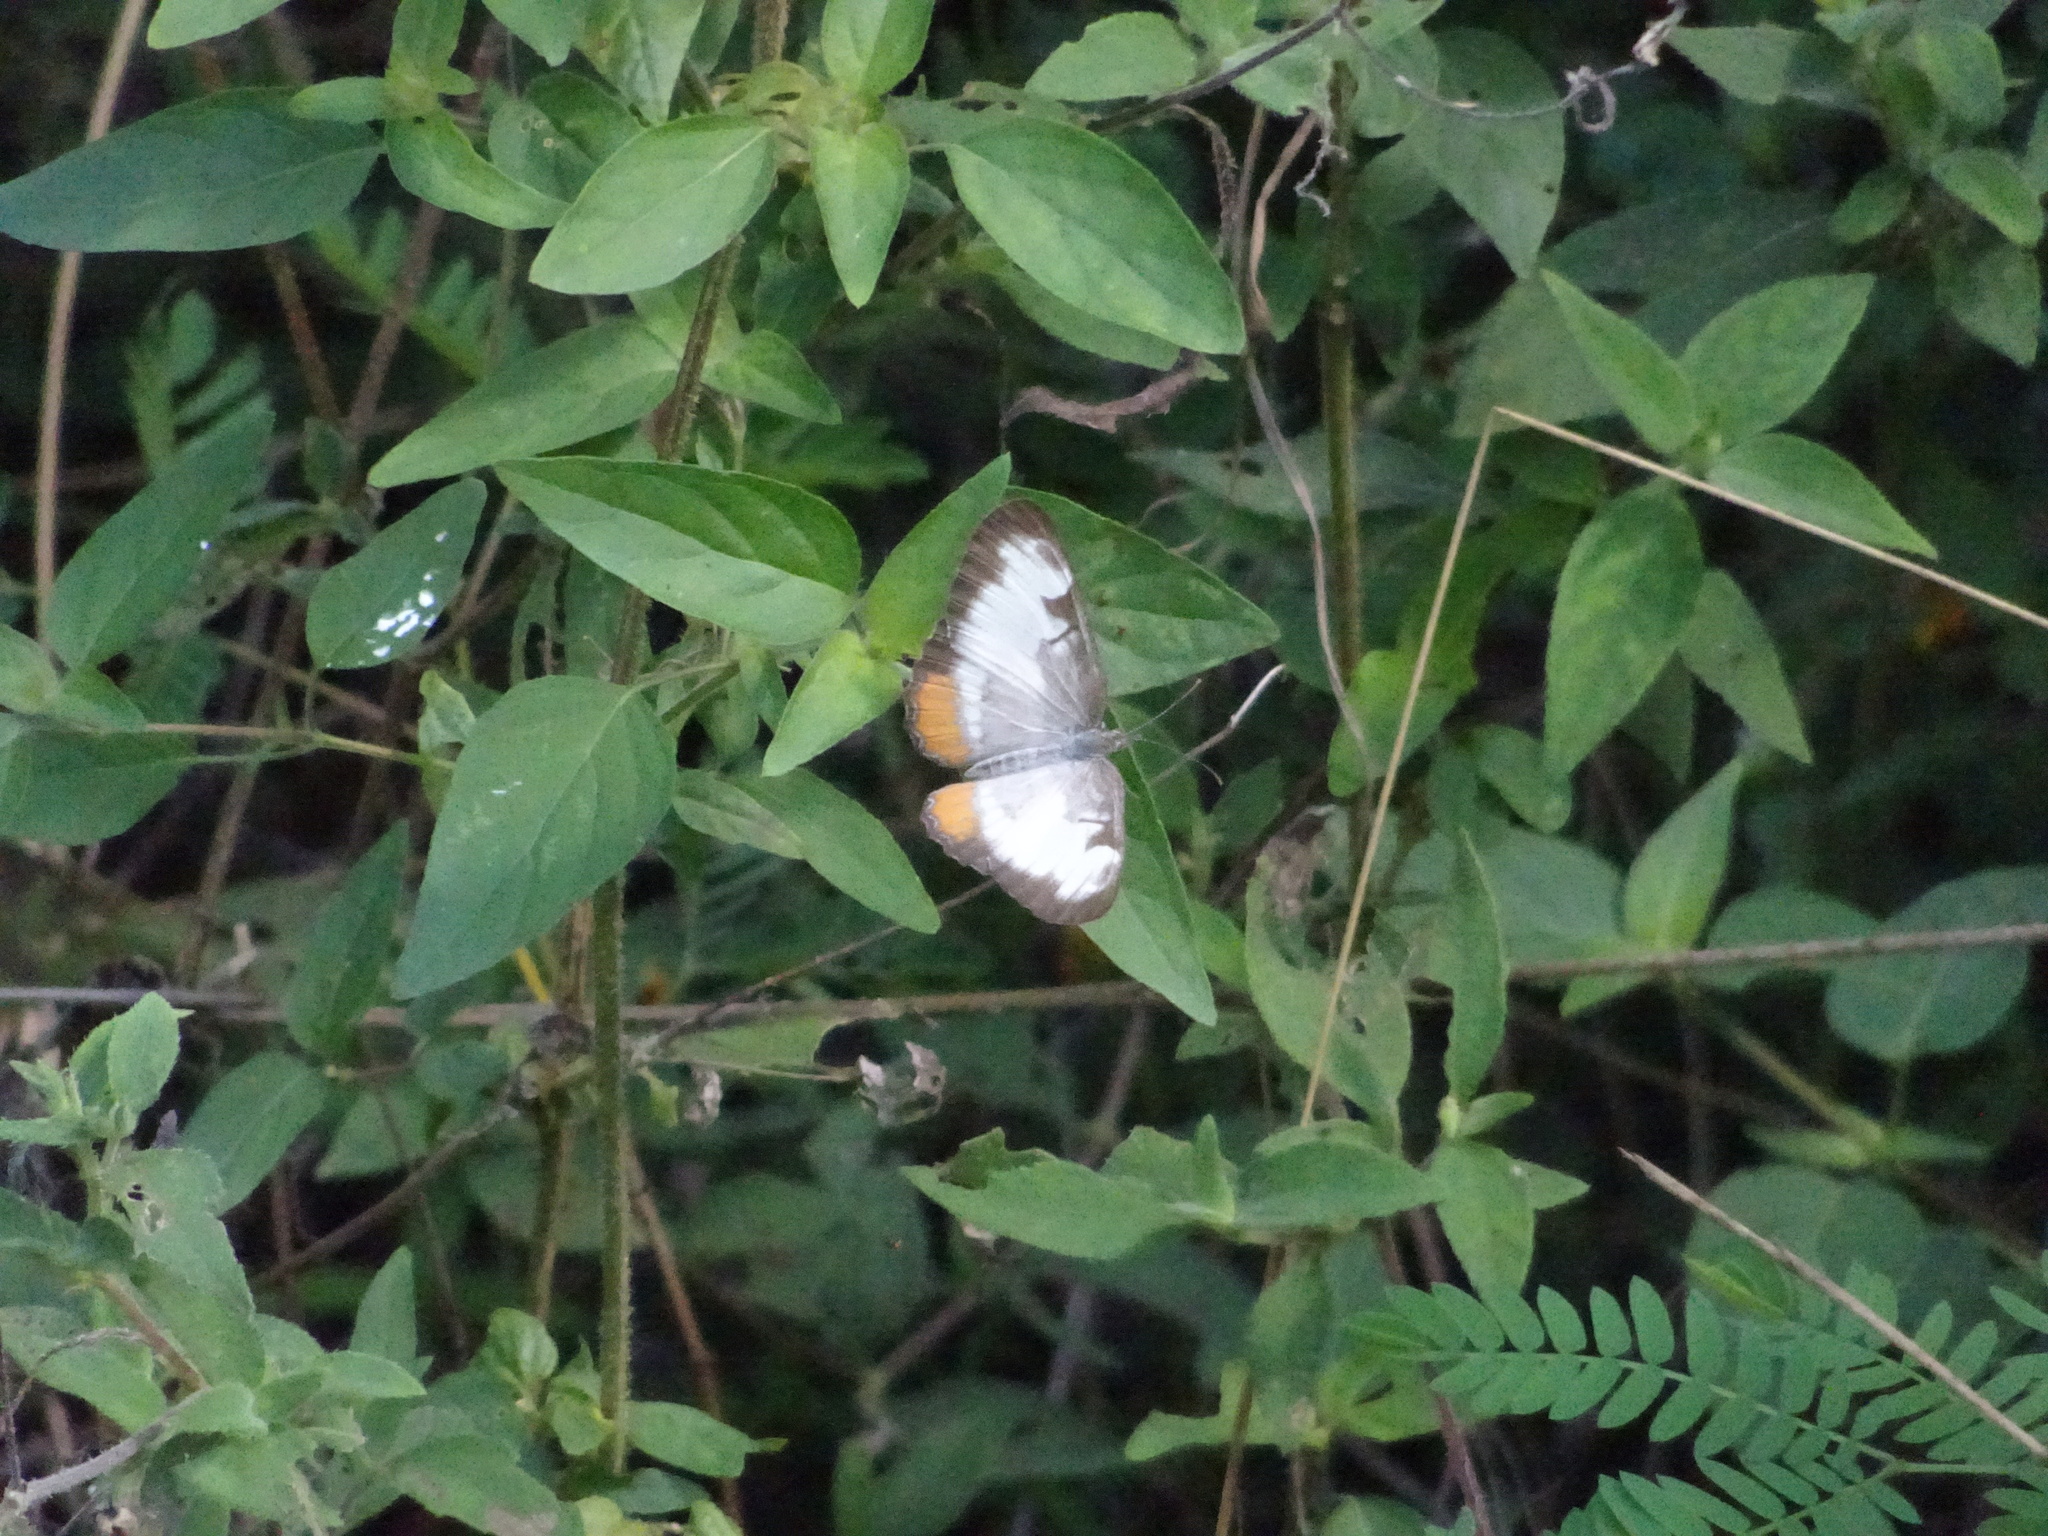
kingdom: Animalia
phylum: Arthropoda
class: Insecta
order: Lepidoptera
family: Nymphalidae
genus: Mestra
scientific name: Mestra amymone
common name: Common mestra
